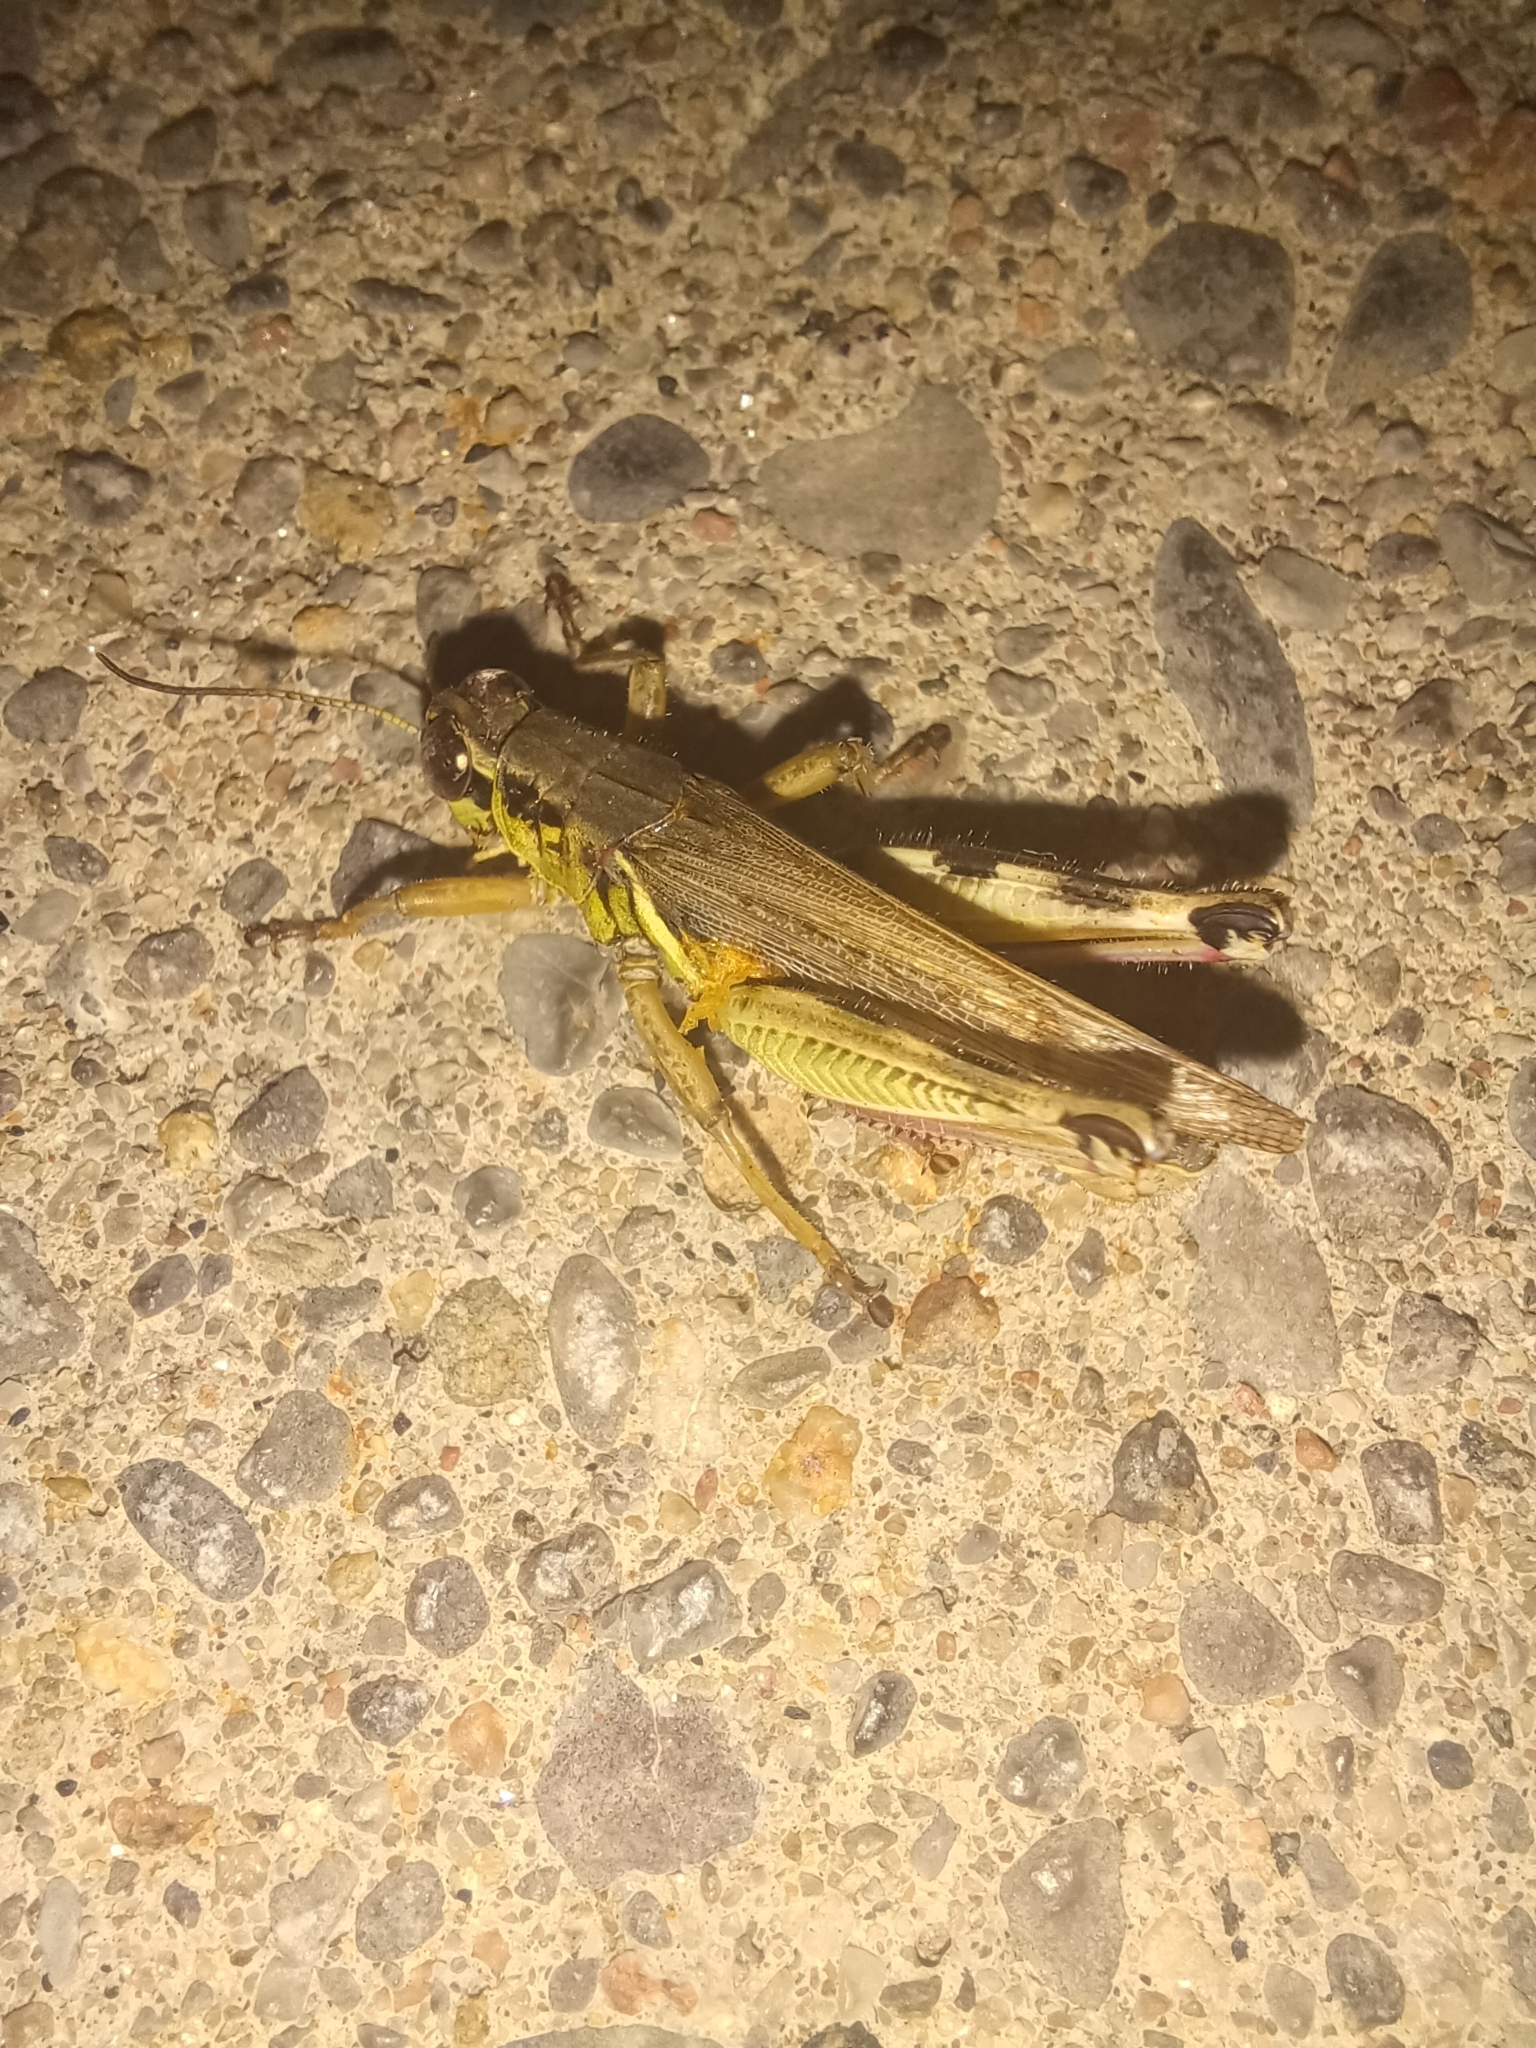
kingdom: Animalia
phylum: Arthropoda
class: Insecta
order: Orthoptera
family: Acrididae
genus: Melanoplus
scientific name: Melanoplus femurrubrum
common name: Red-legged grasshopper
